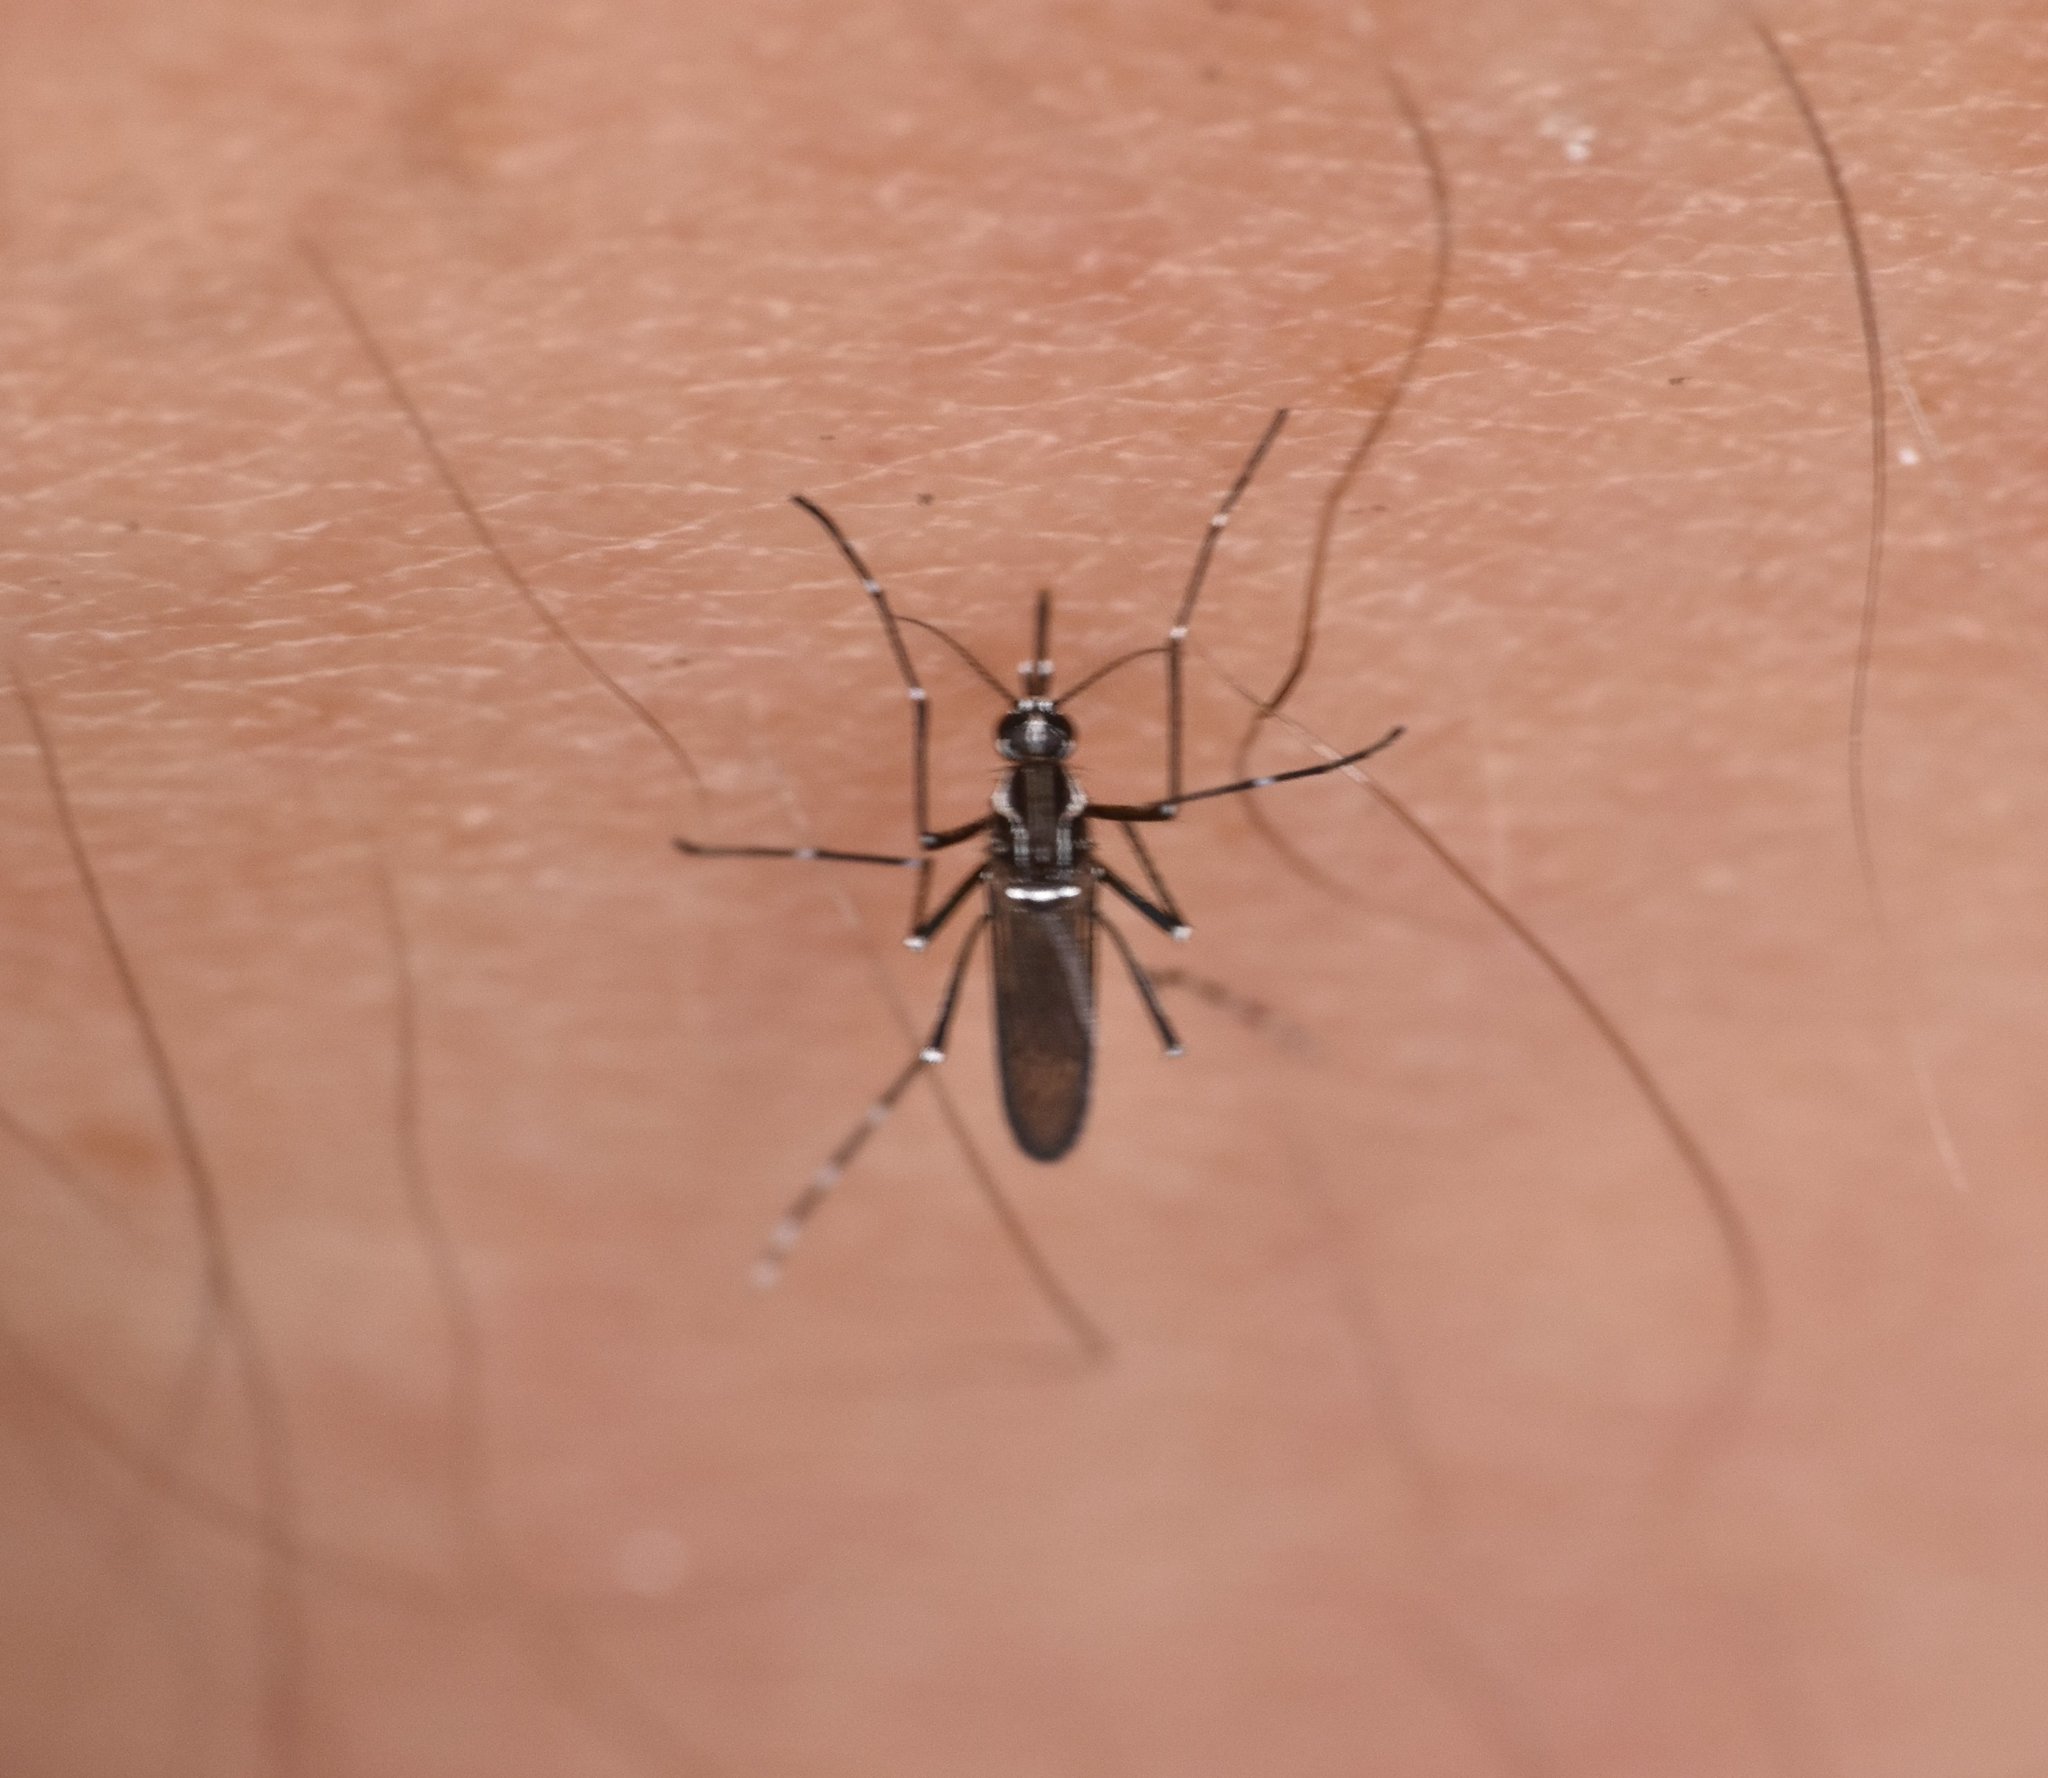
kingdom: Animalia
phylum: Arthropoda
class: Insecta
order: Diptera
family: Culicidae
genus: Aedes
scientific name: Aedes aegypti
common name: Yellow fever mosquito
